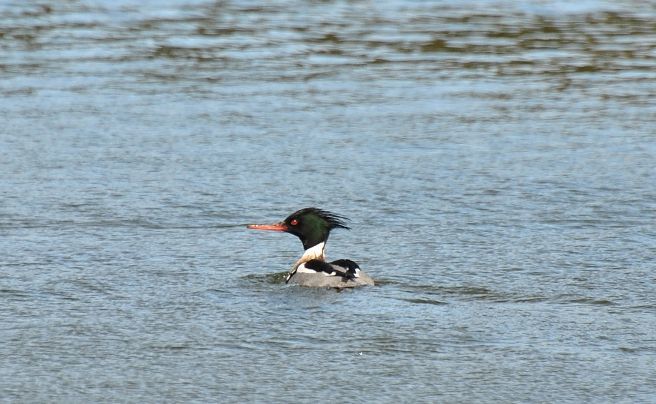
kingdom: Animalia
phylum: Chordata
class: Aves
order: Anseriformes
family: Anatidae
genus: Mergus
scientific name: Mergus serrator
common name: Red-breasted merganser
